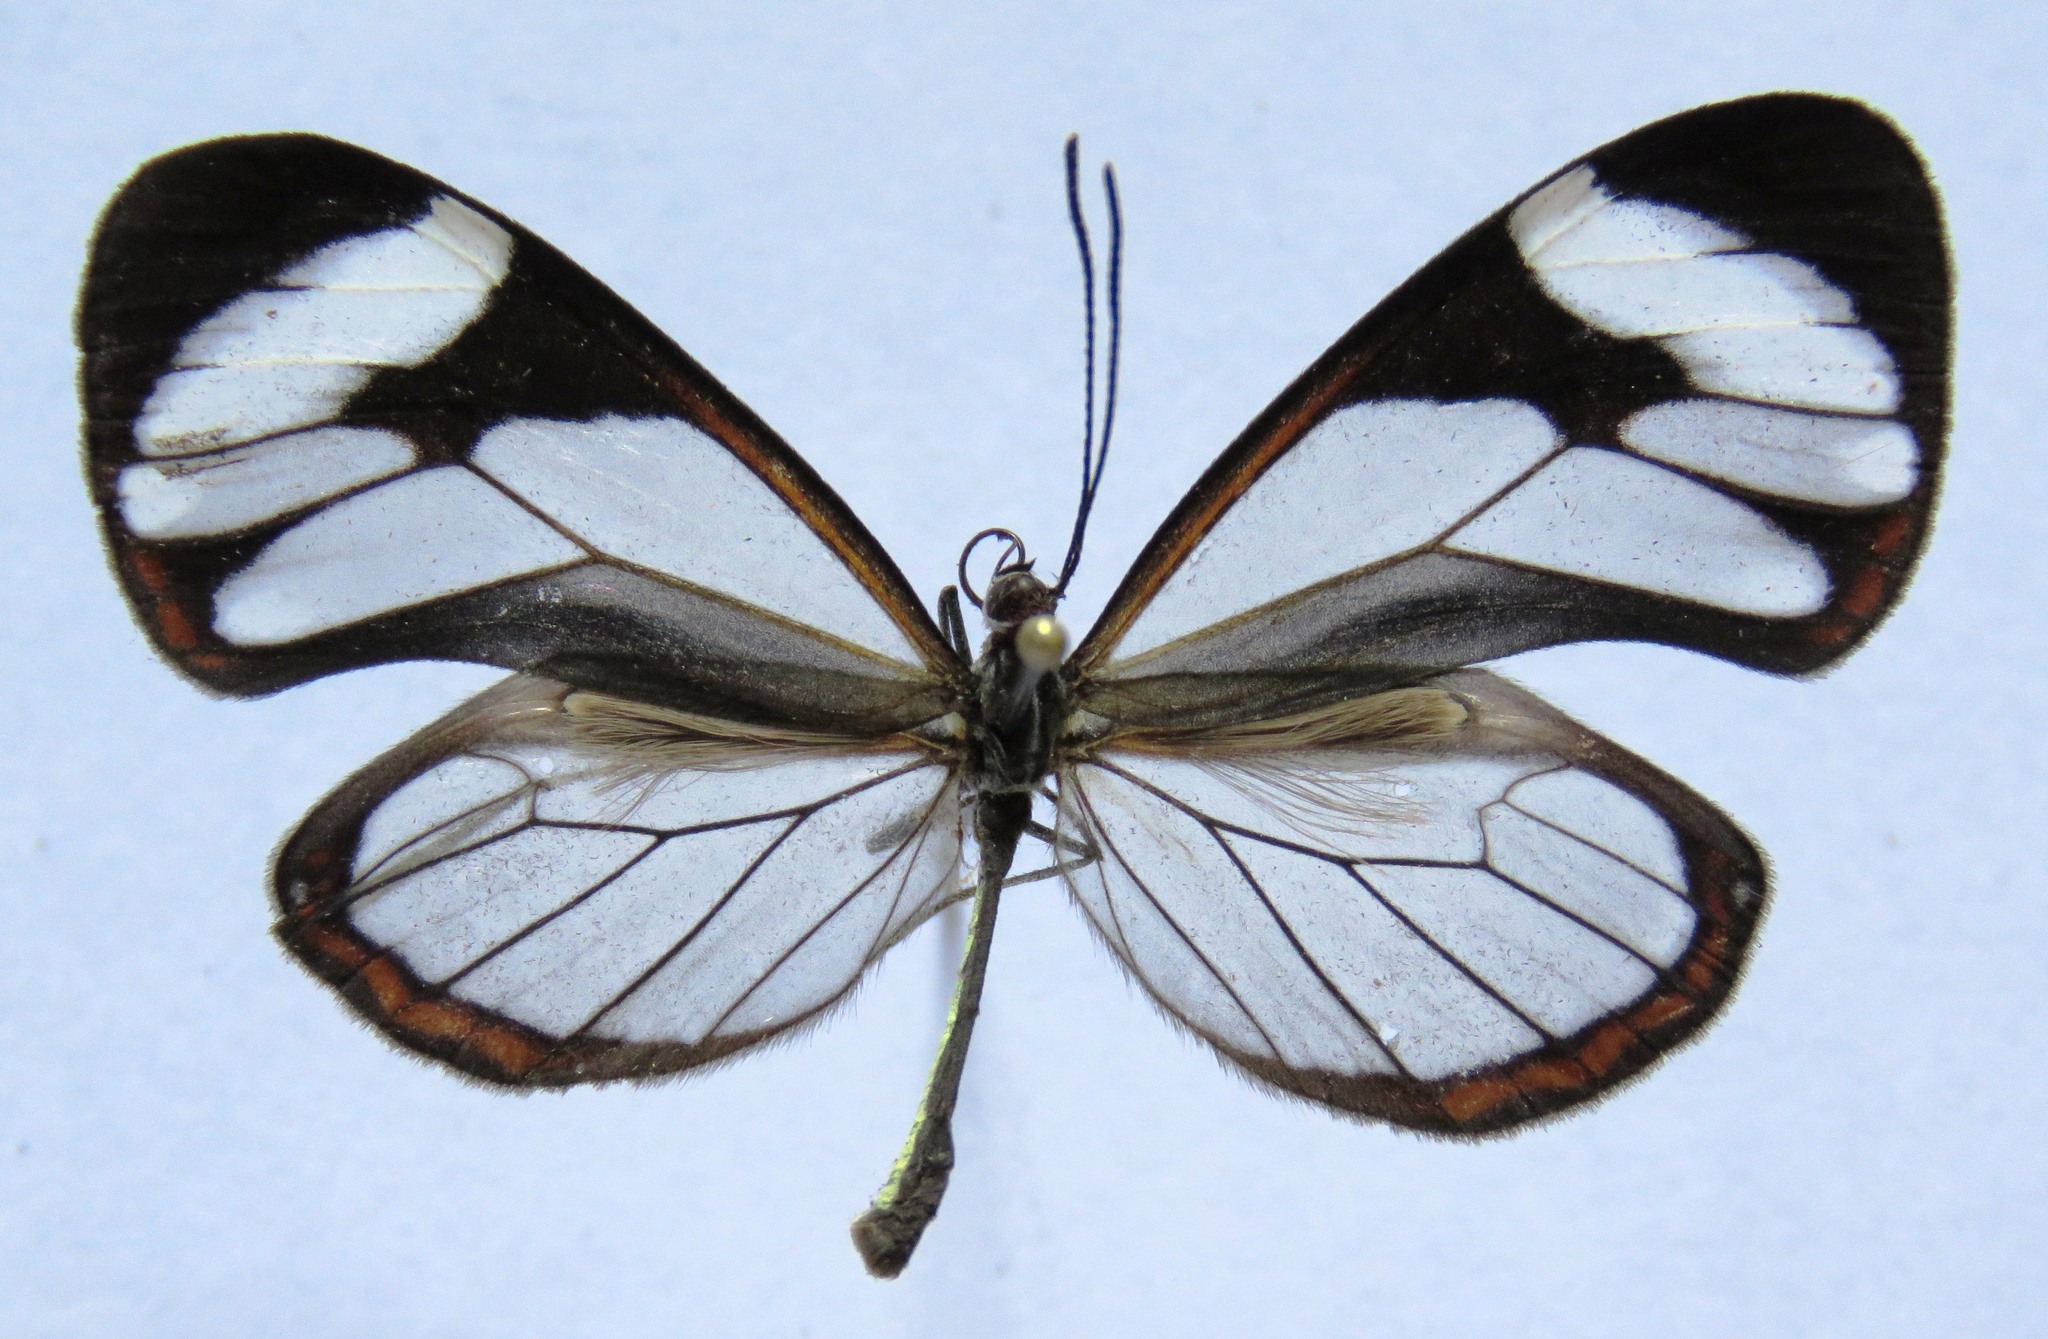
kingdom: Animalia
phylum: Arthropoda
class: Insecta
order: Lepidoptera
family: Nymphalidae
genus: Ithomia
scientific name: Ithomia patilla
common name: Patilla clearwing
